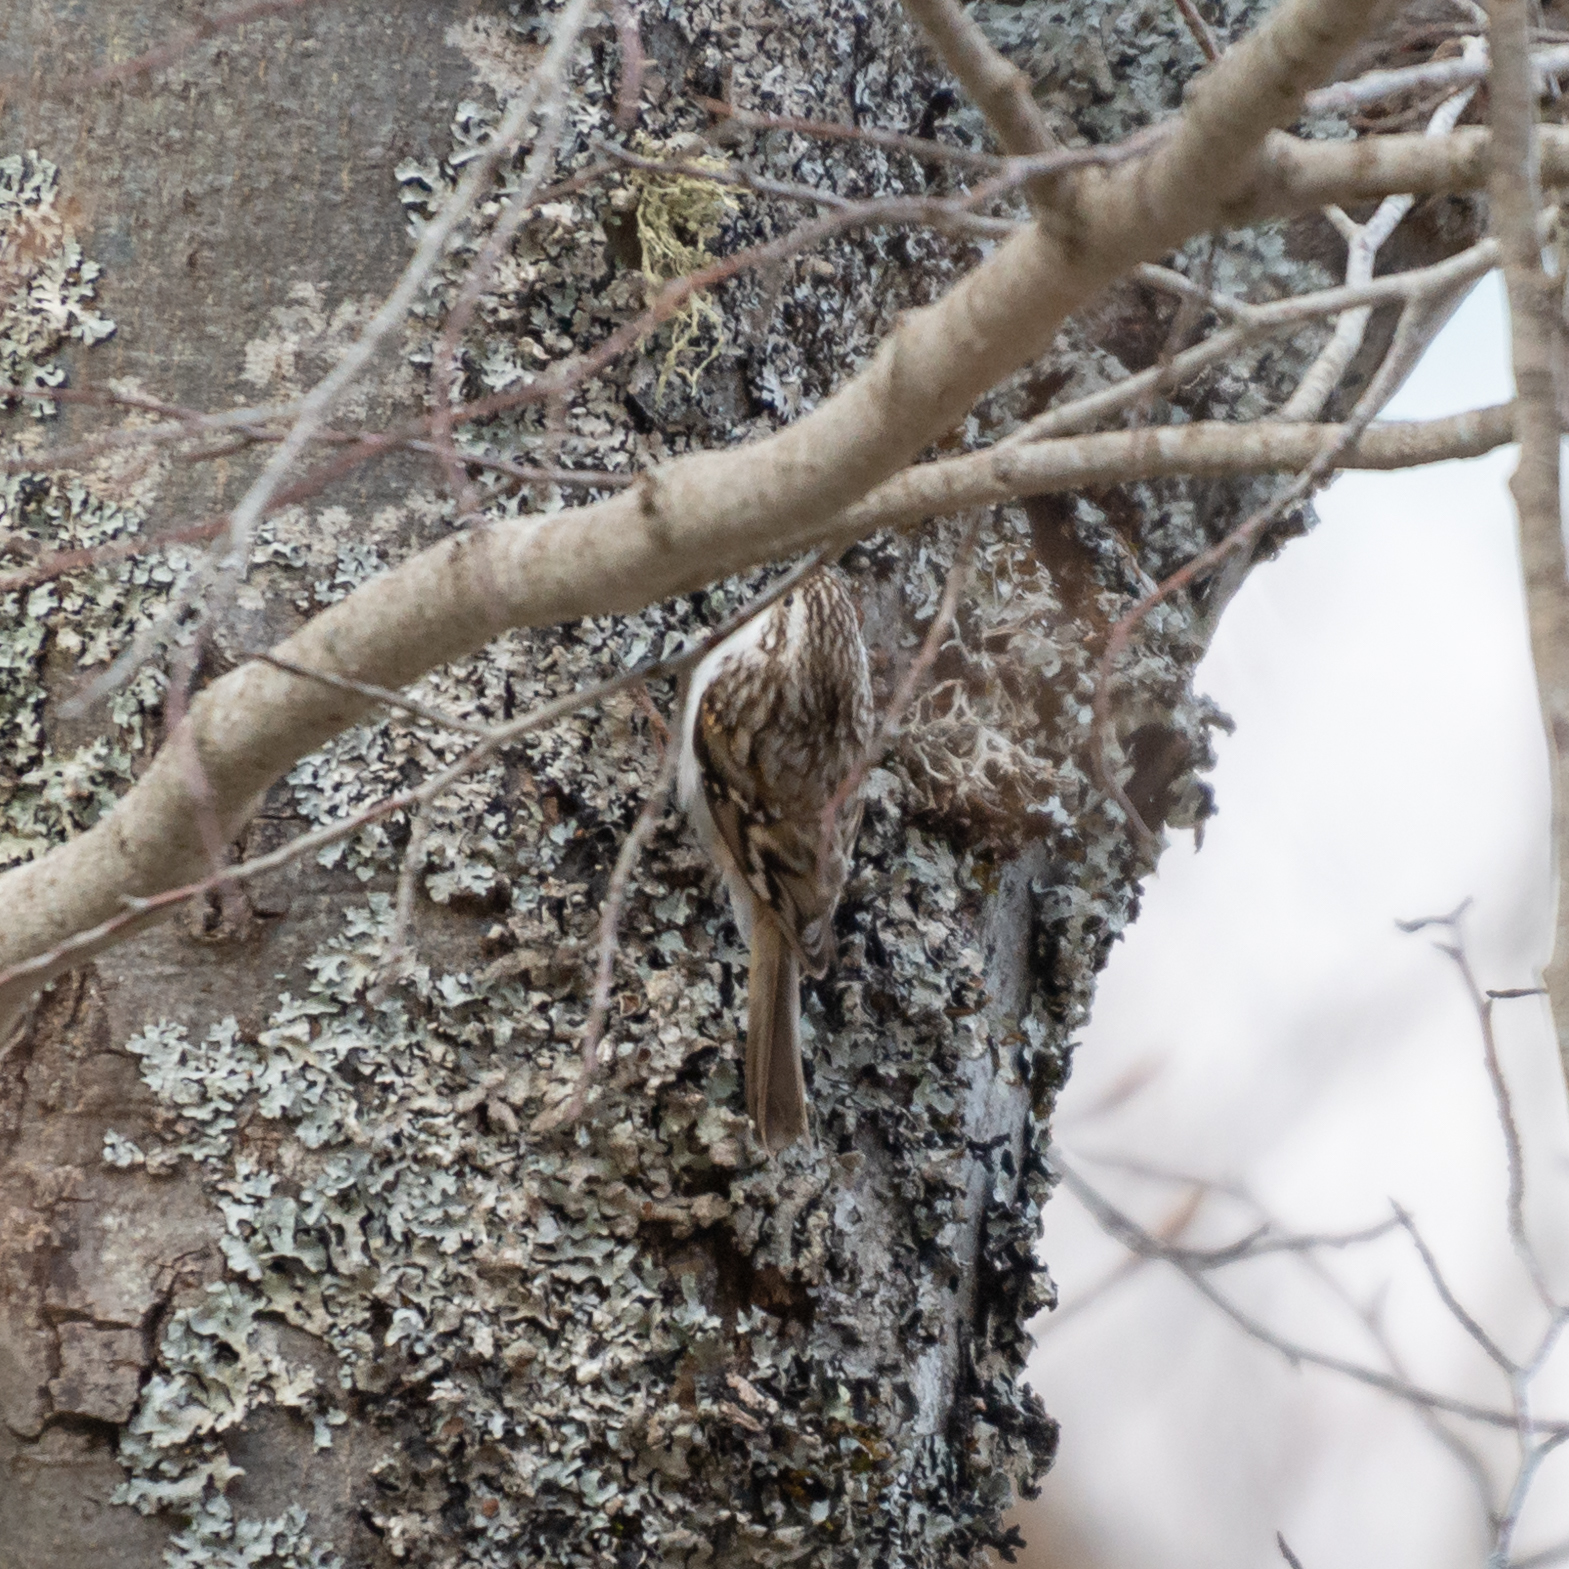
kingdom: Animalia
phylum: Chordata
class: Aves
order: Passeriformes
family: Certhiidae
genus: Certhia
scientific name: Certhia brachydactyla
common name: Short-toed treecreeper
